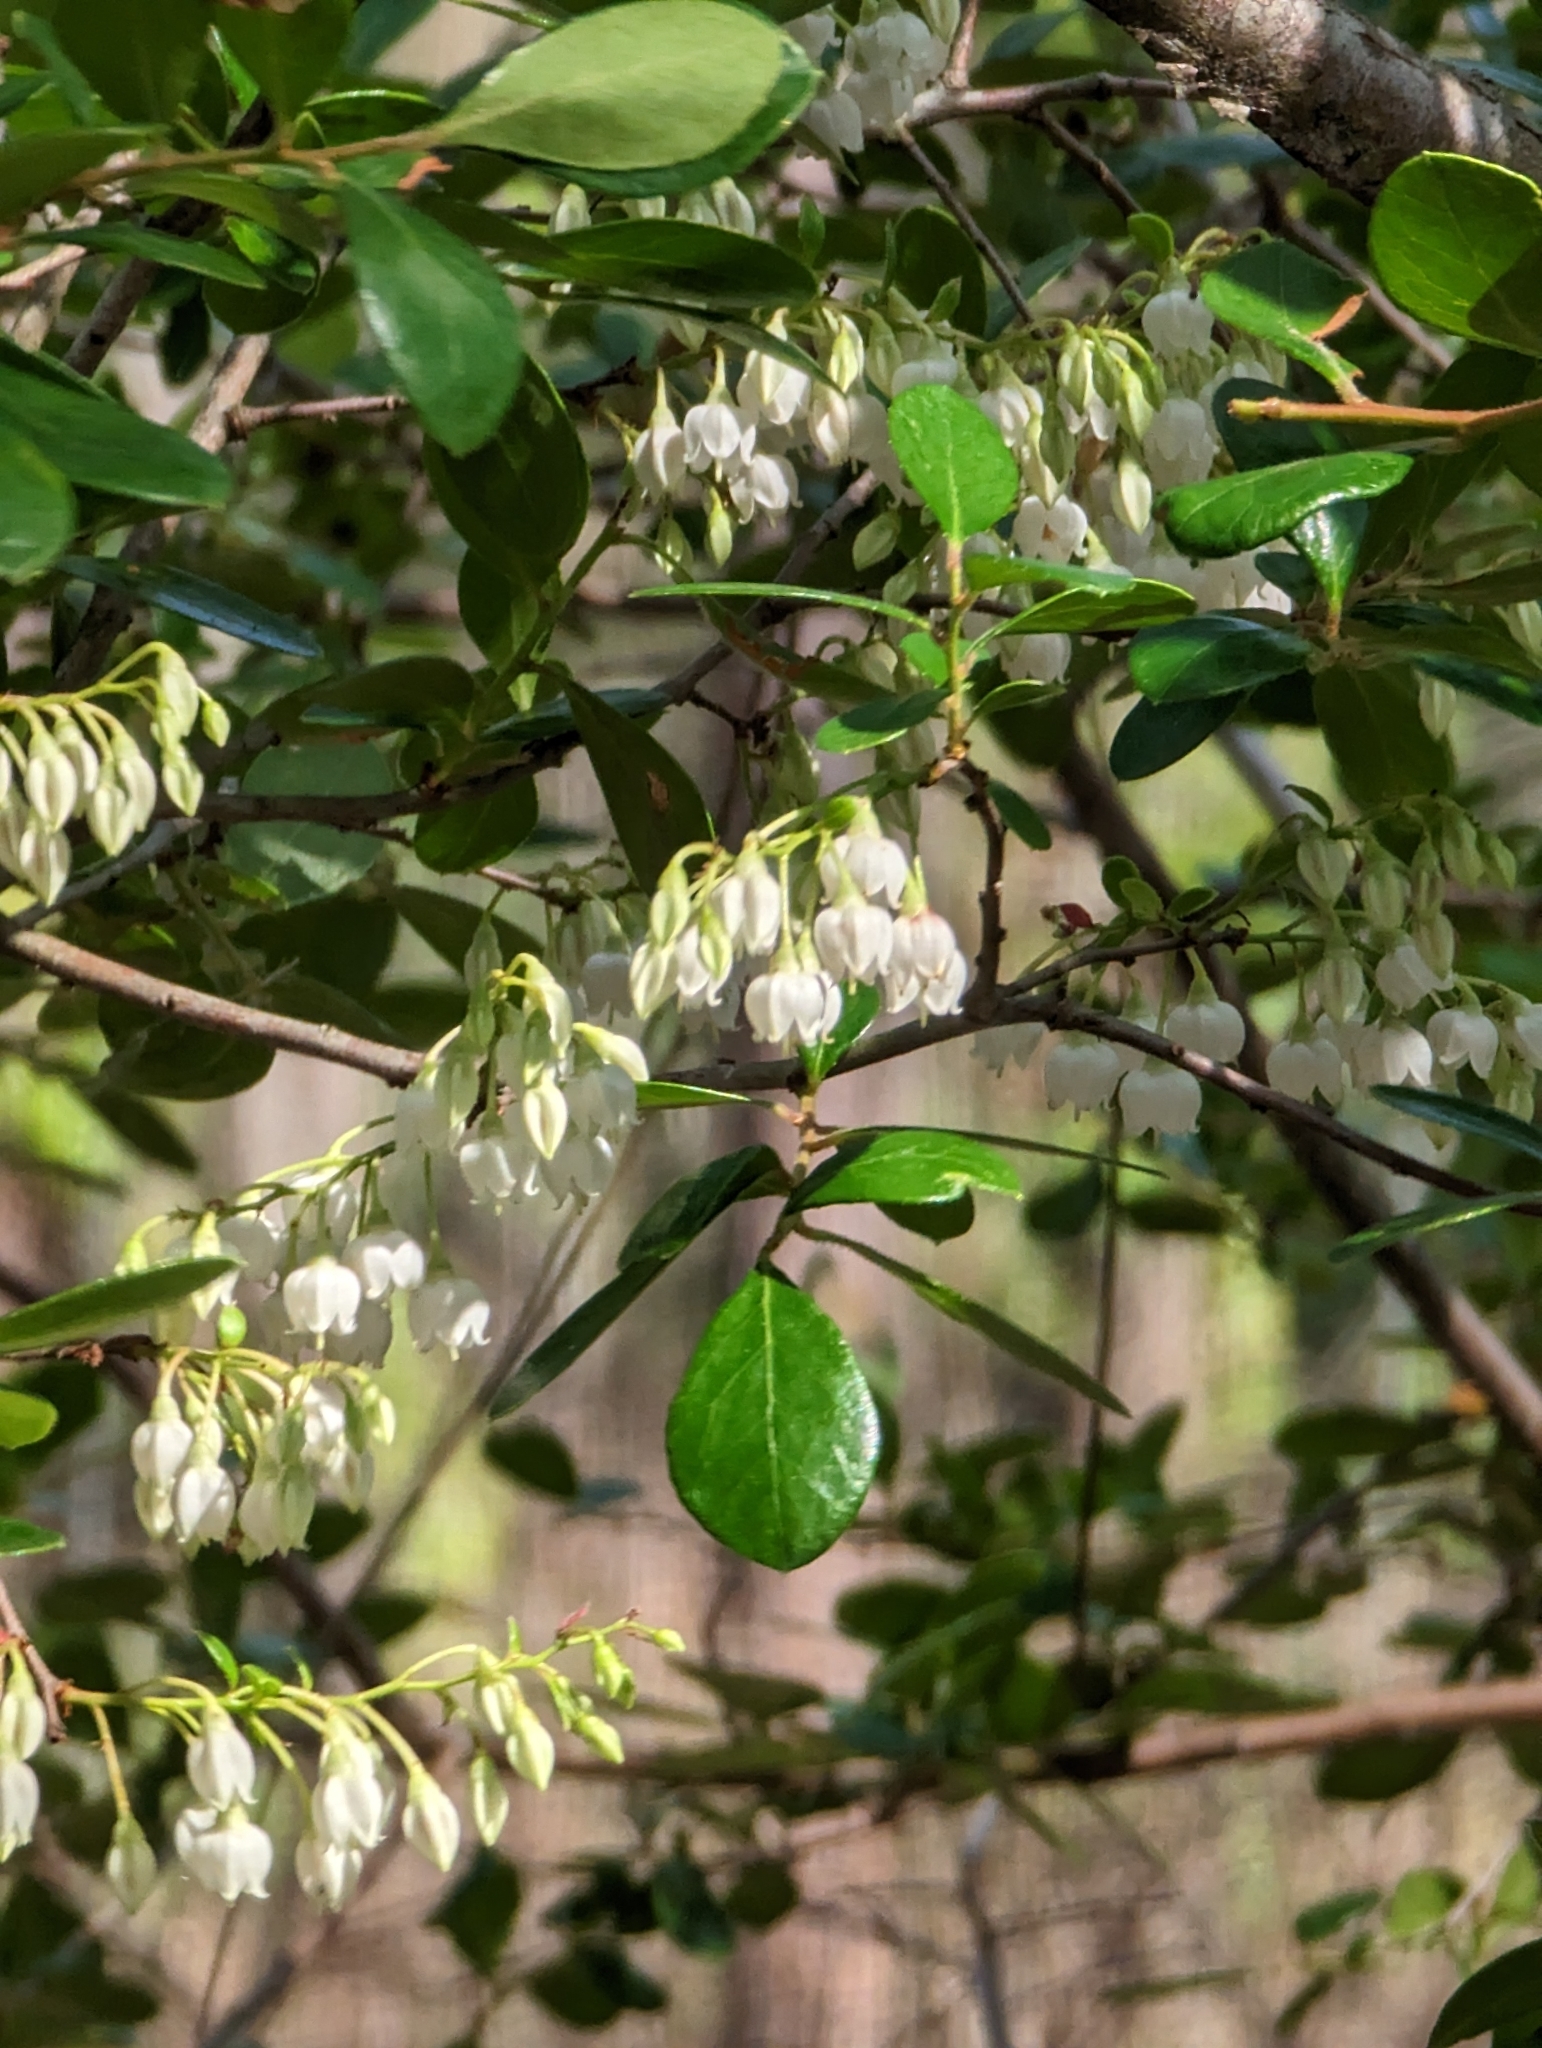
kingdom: Plantae
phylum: Tracheophyta
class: Magnoliopsida
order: Ericales
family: Ericaceae
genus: Vaccinium
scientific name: Vaccinium arboreum
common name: Farkleberry
